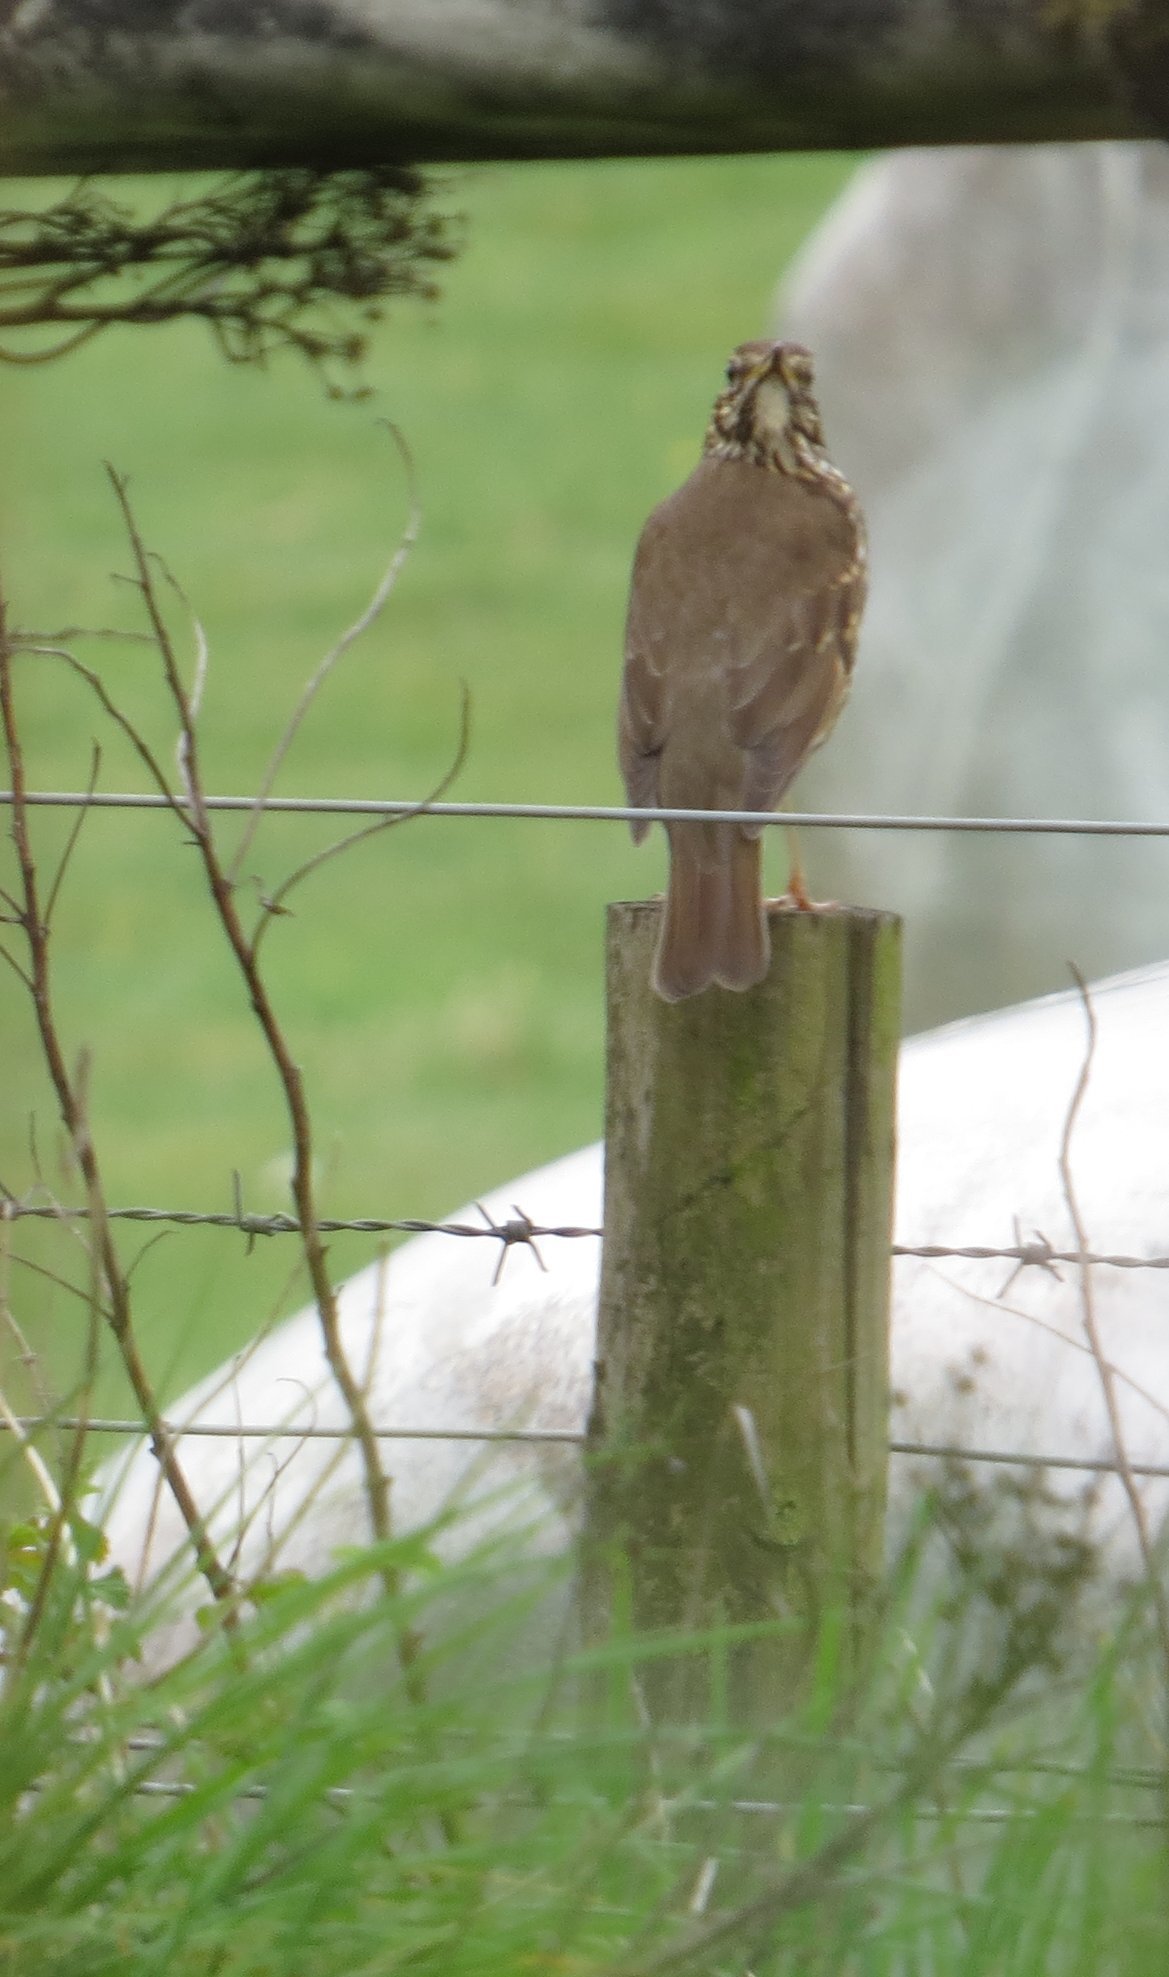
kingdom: Animalia
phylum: Chordata
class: Aves
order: Passeriformes
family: Turdidae
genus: Turdus
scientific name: Turdus philomelos
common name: Song thrush
